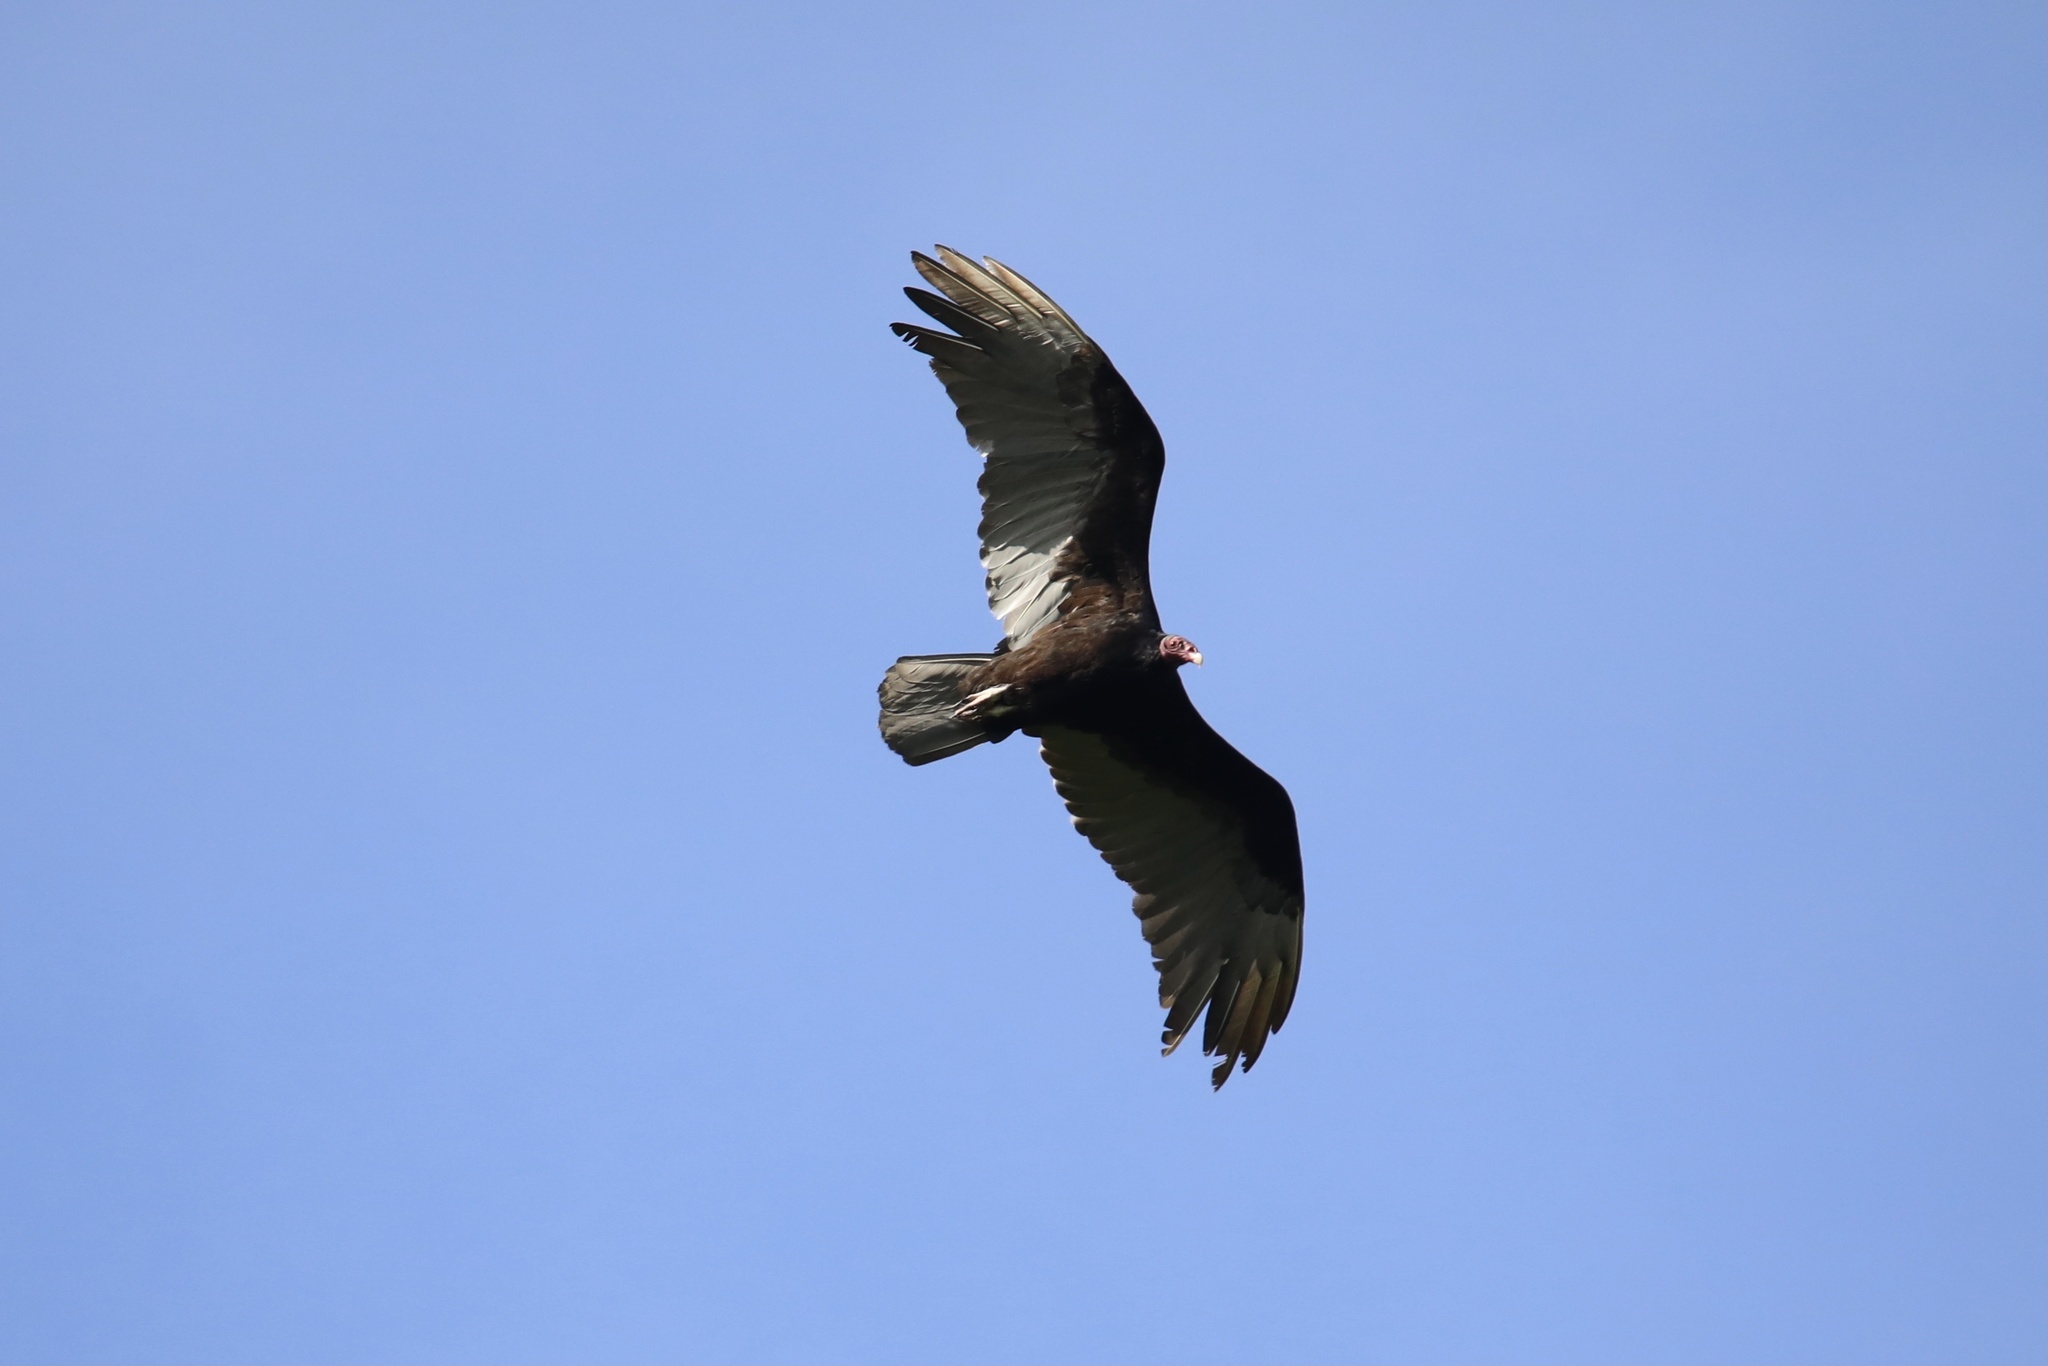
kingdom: Animalia
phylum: Chordata
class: Aves
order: Accipitriformes
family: Cathartidae
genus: Cathartes
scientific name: Cathartes aura
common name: Turkey vulture
